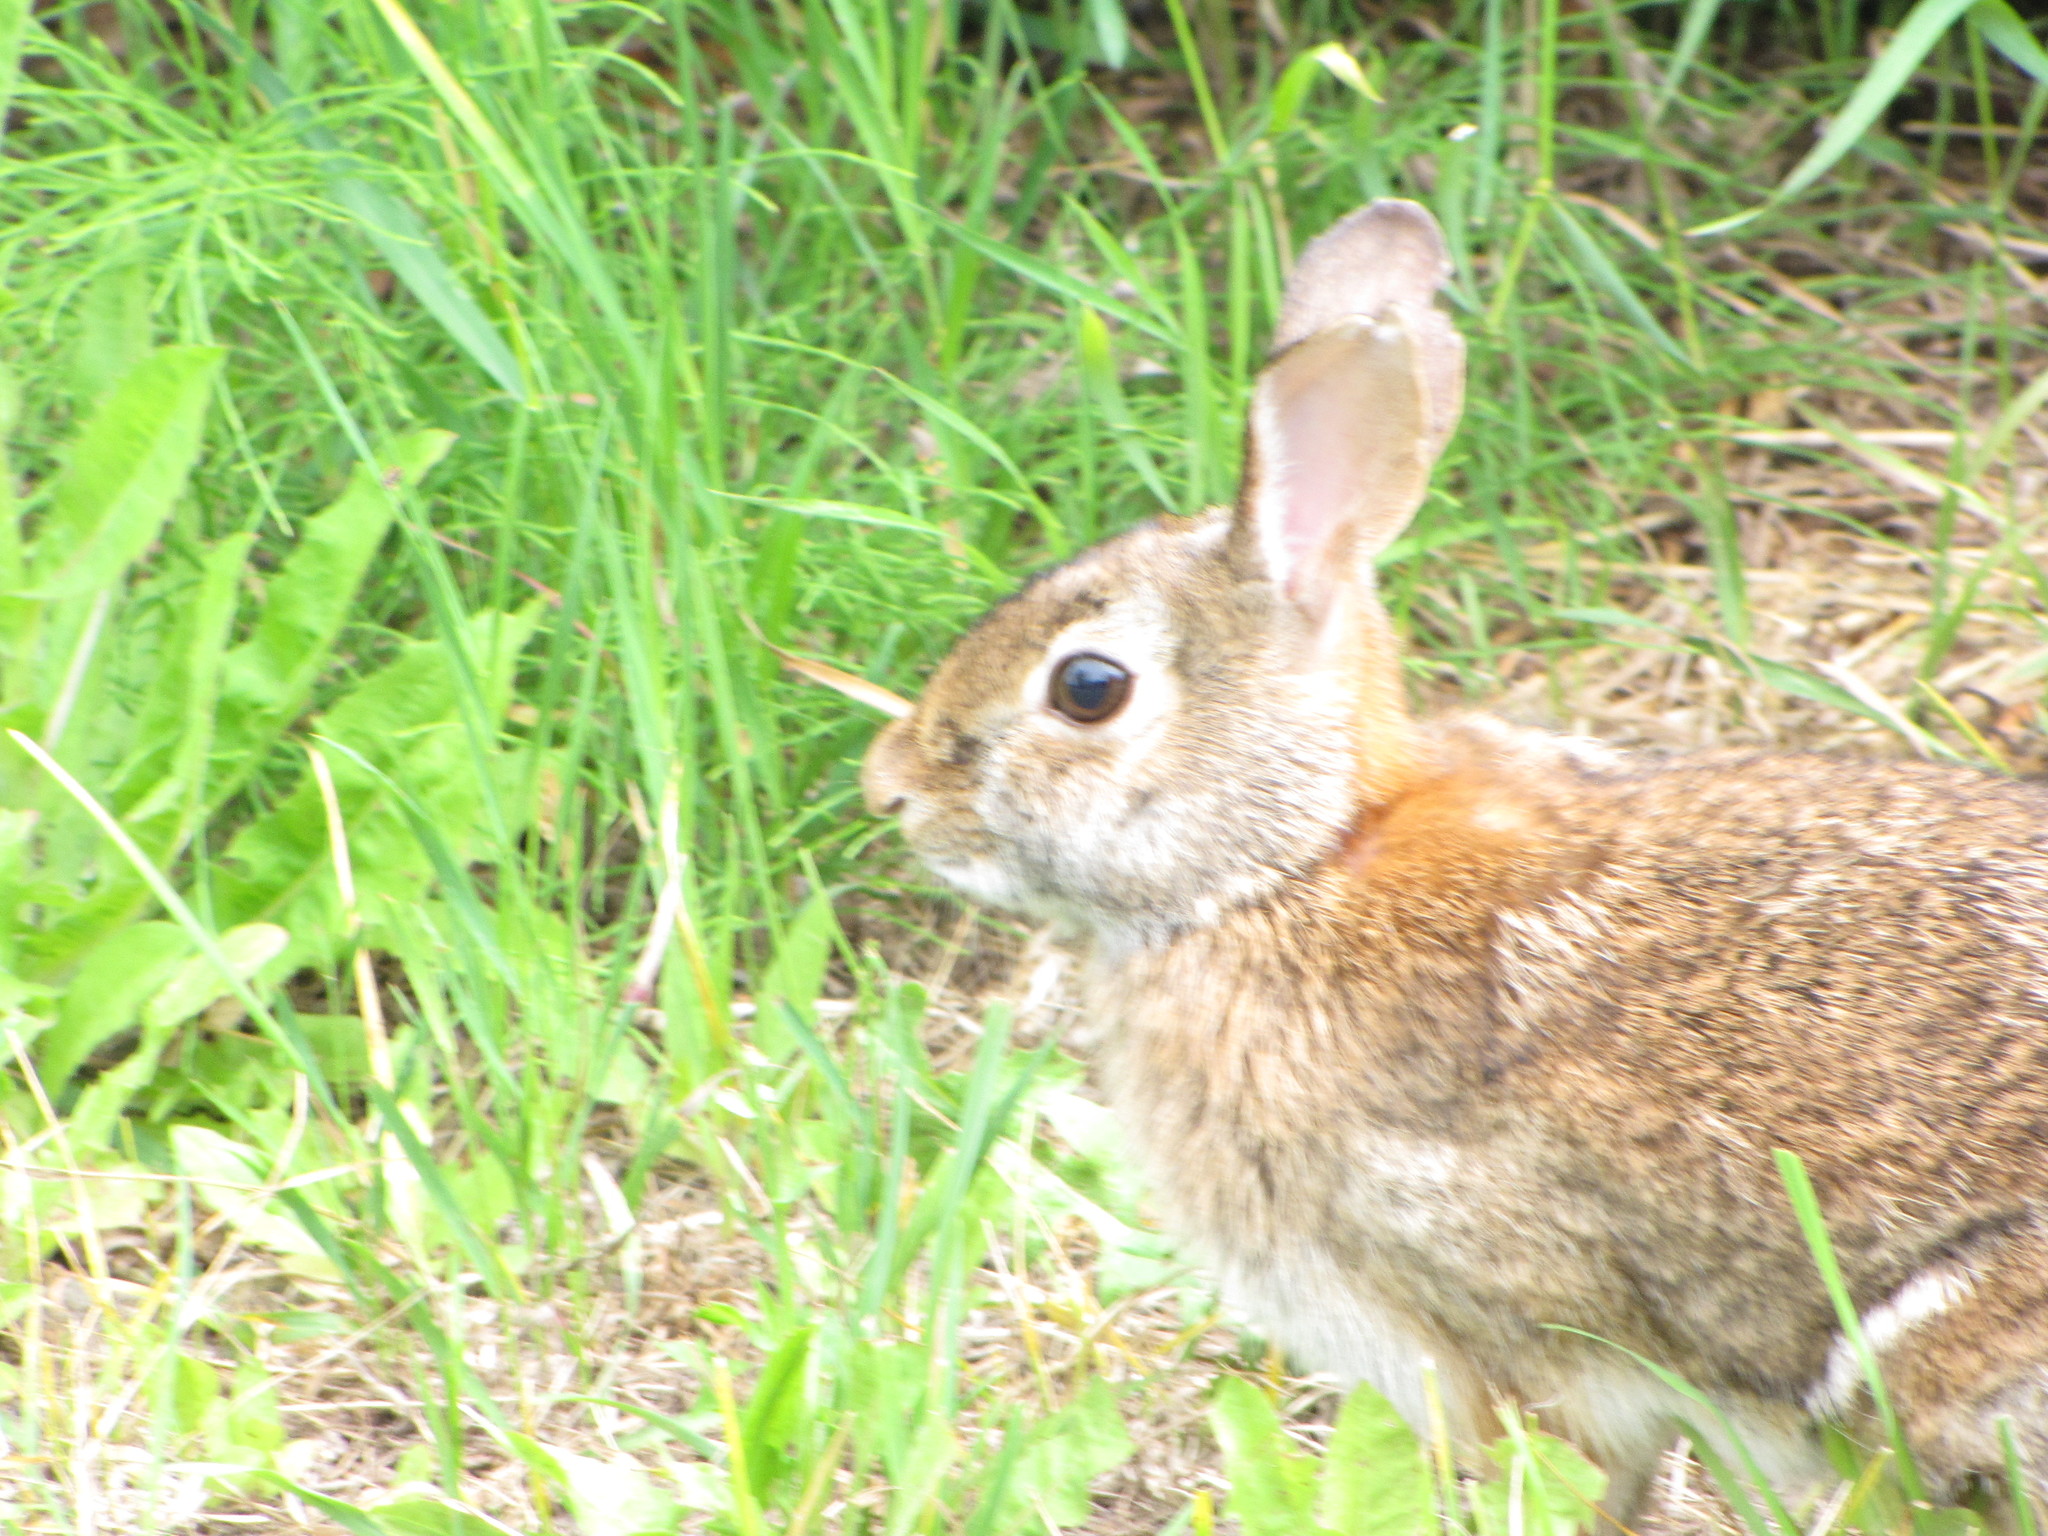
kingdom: Animalia
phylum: Chordata
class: Mammalia
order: Lagomorpha
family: Leporidae
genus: Sylvilagus
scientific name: Sylvilagus floridanus
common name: Eastern cottontail
